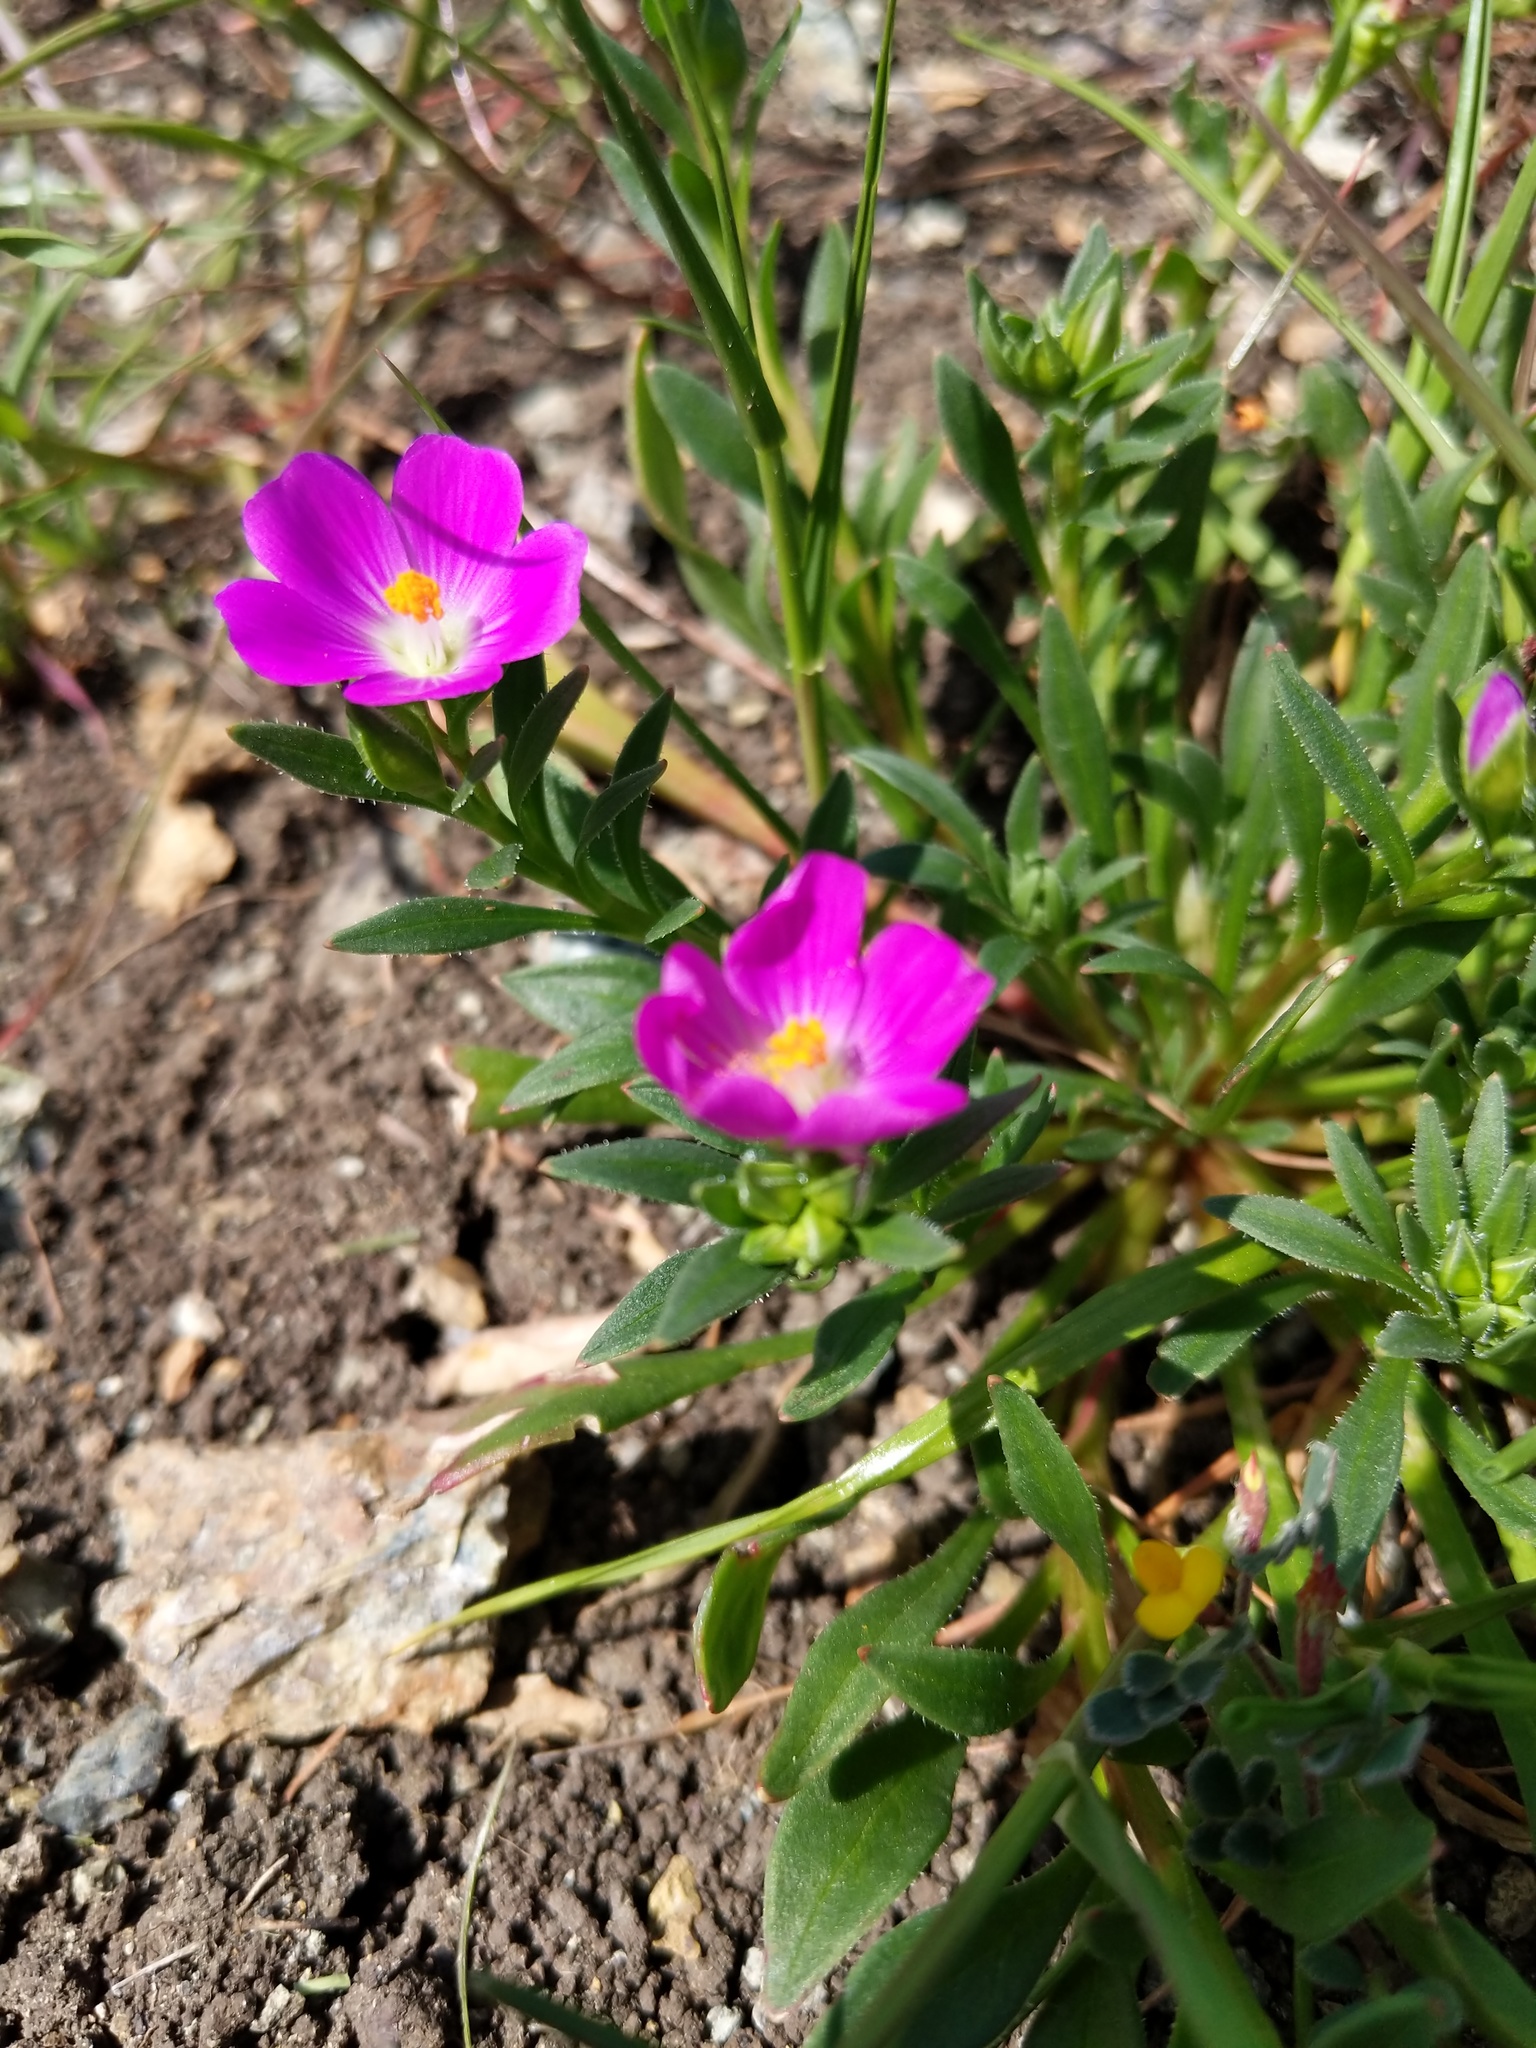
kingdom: Plantae
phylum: Tracheophyta
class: Magnoliopsida
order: Caryophyllales
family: Montiaceae
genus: Calandrinia
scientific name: Calandrinia menziesii
